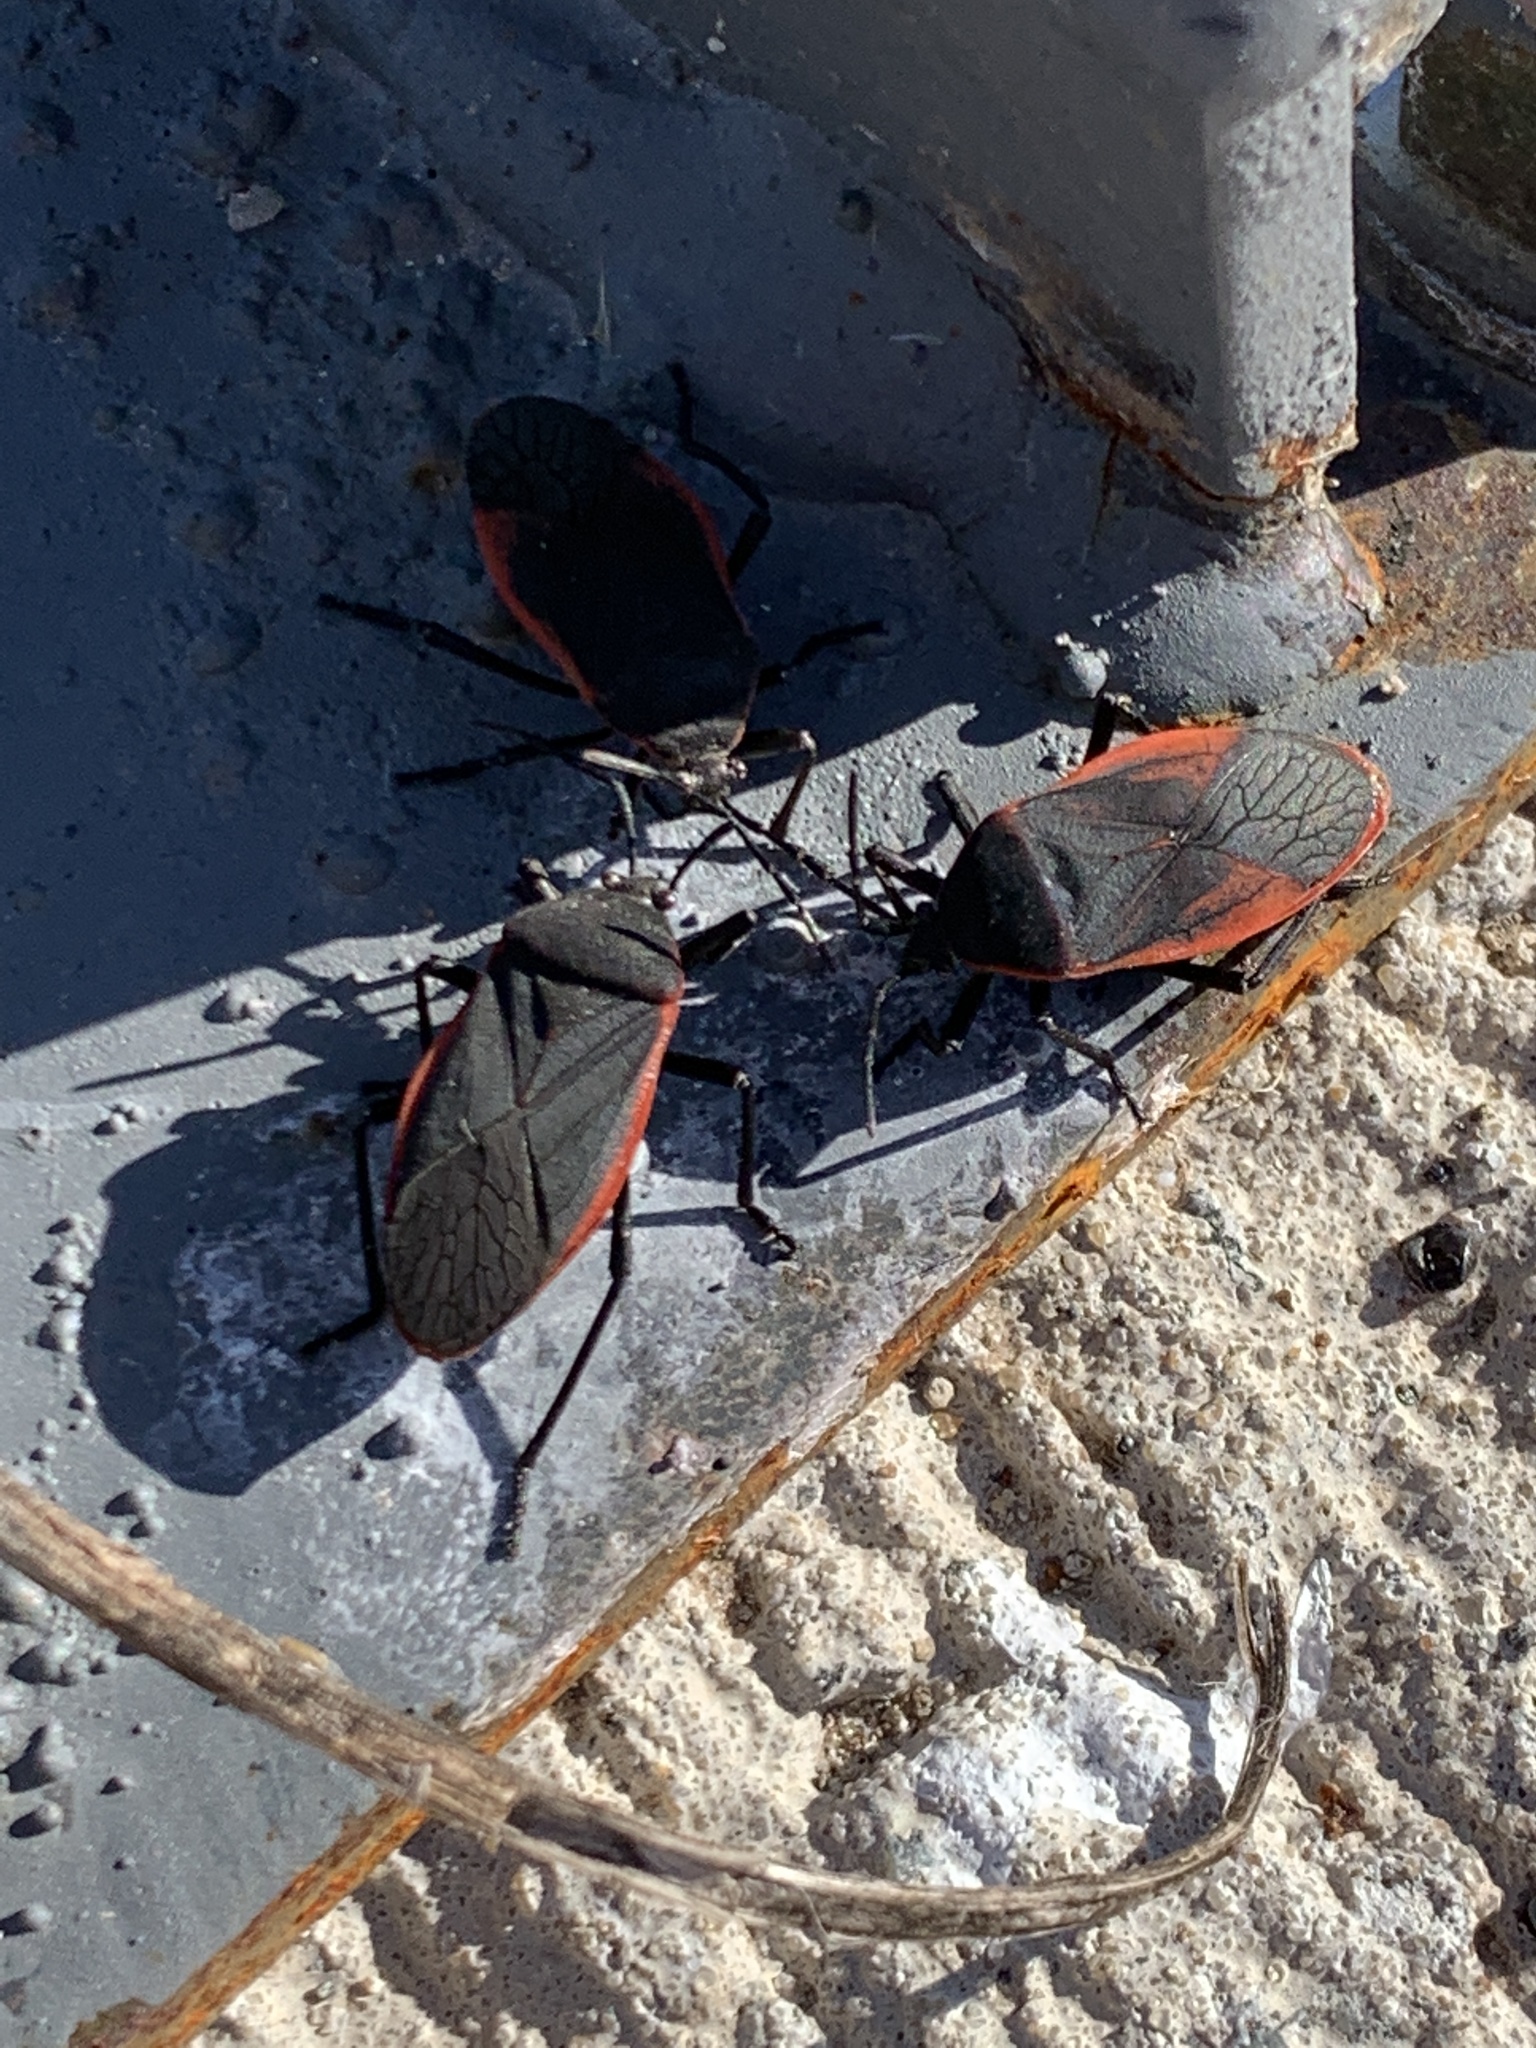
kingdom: Animalia
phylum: Arthropoda
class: Insecta
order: Hemiptera
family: Largidae
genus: Largus
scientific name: Largus rufipennis
